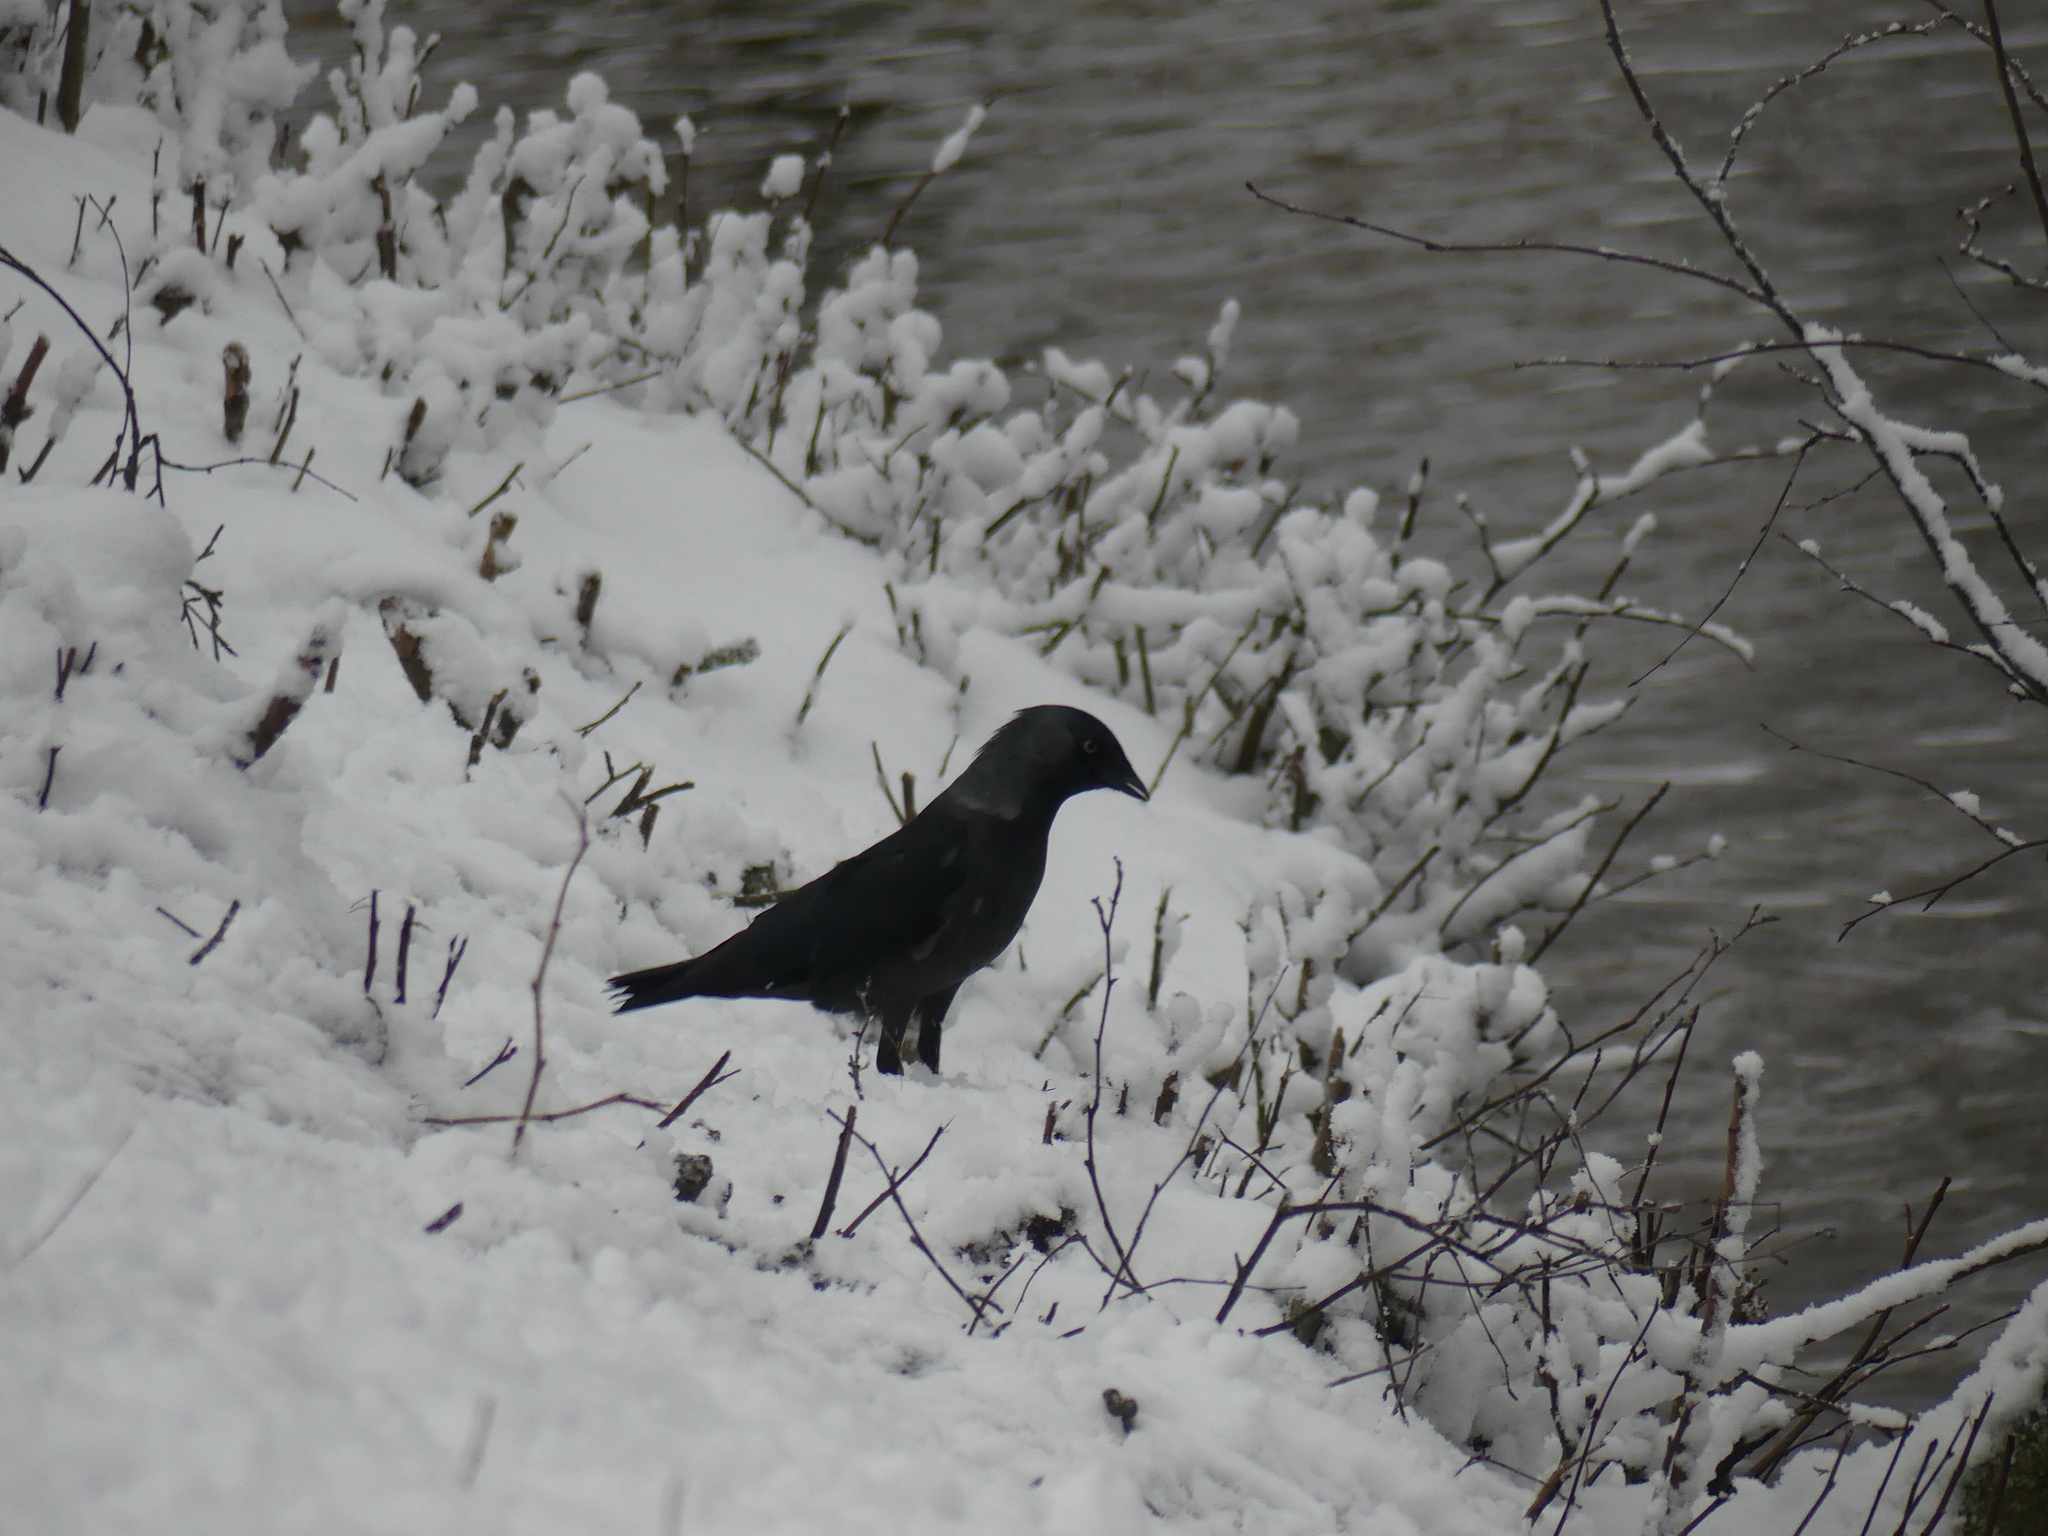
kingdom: Animalia
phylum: Chordata
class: Aves
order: Passeriformes
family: Corvidae
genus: Coloeus
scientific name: Coloeus monedula
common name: Western jackdaw
